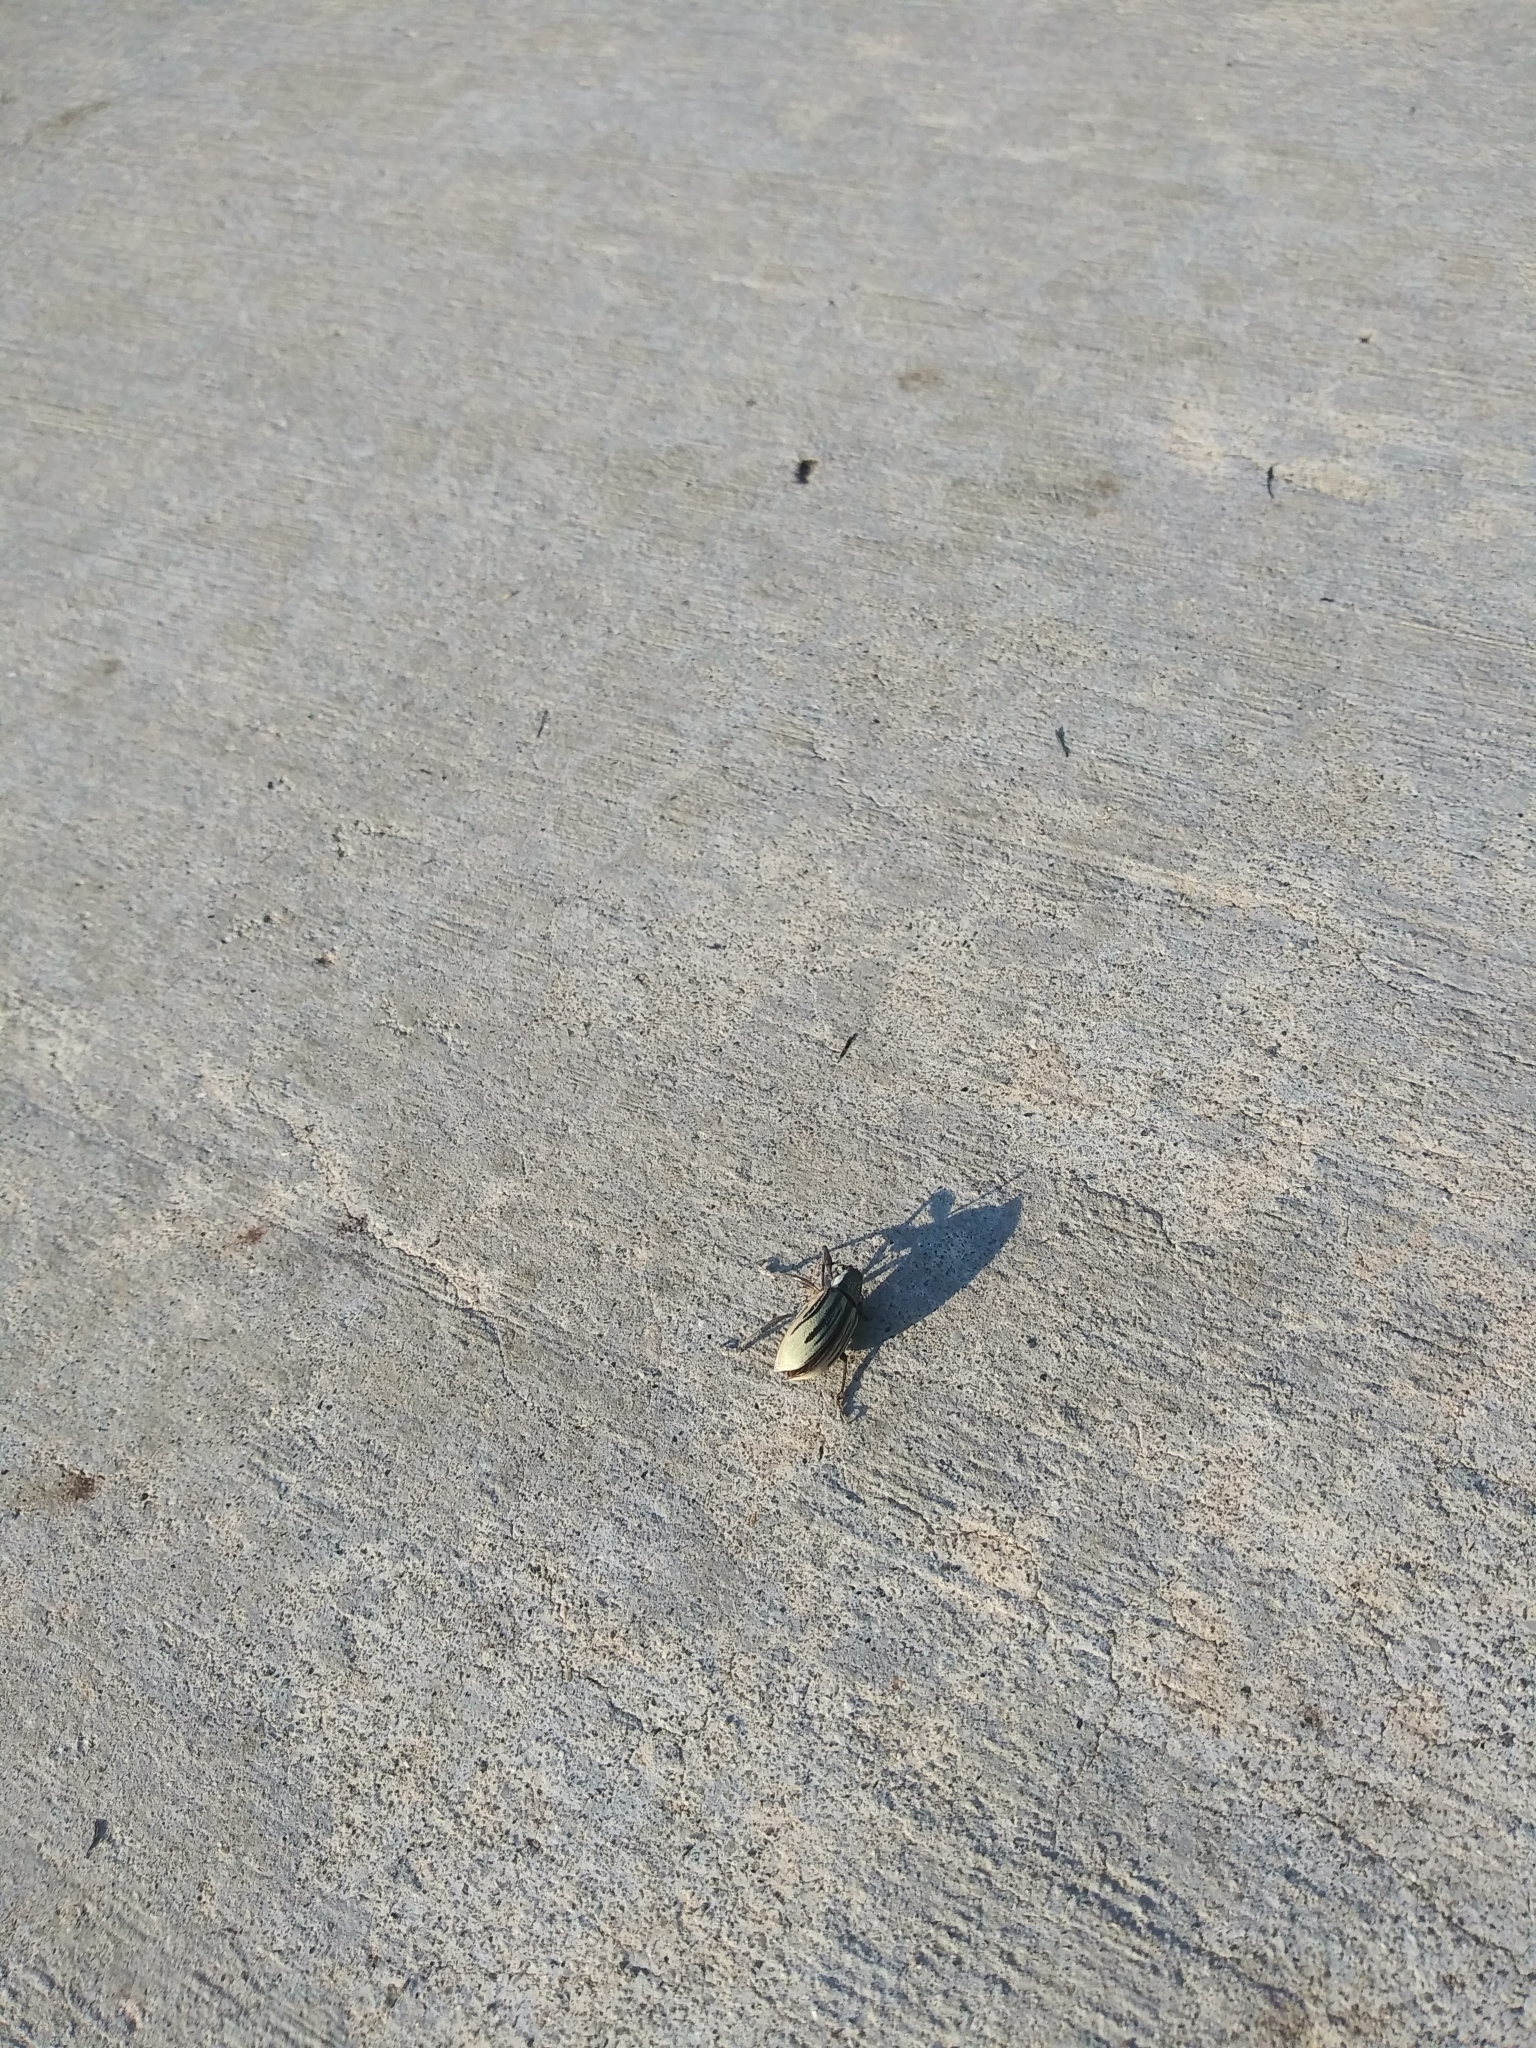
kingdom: Animalia
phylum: Arthropoda
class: Insecta
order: Coleoptera
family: Curculionidae
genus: Diaprepes
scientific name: Diaprepes abbreviatus
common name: Root weevil
